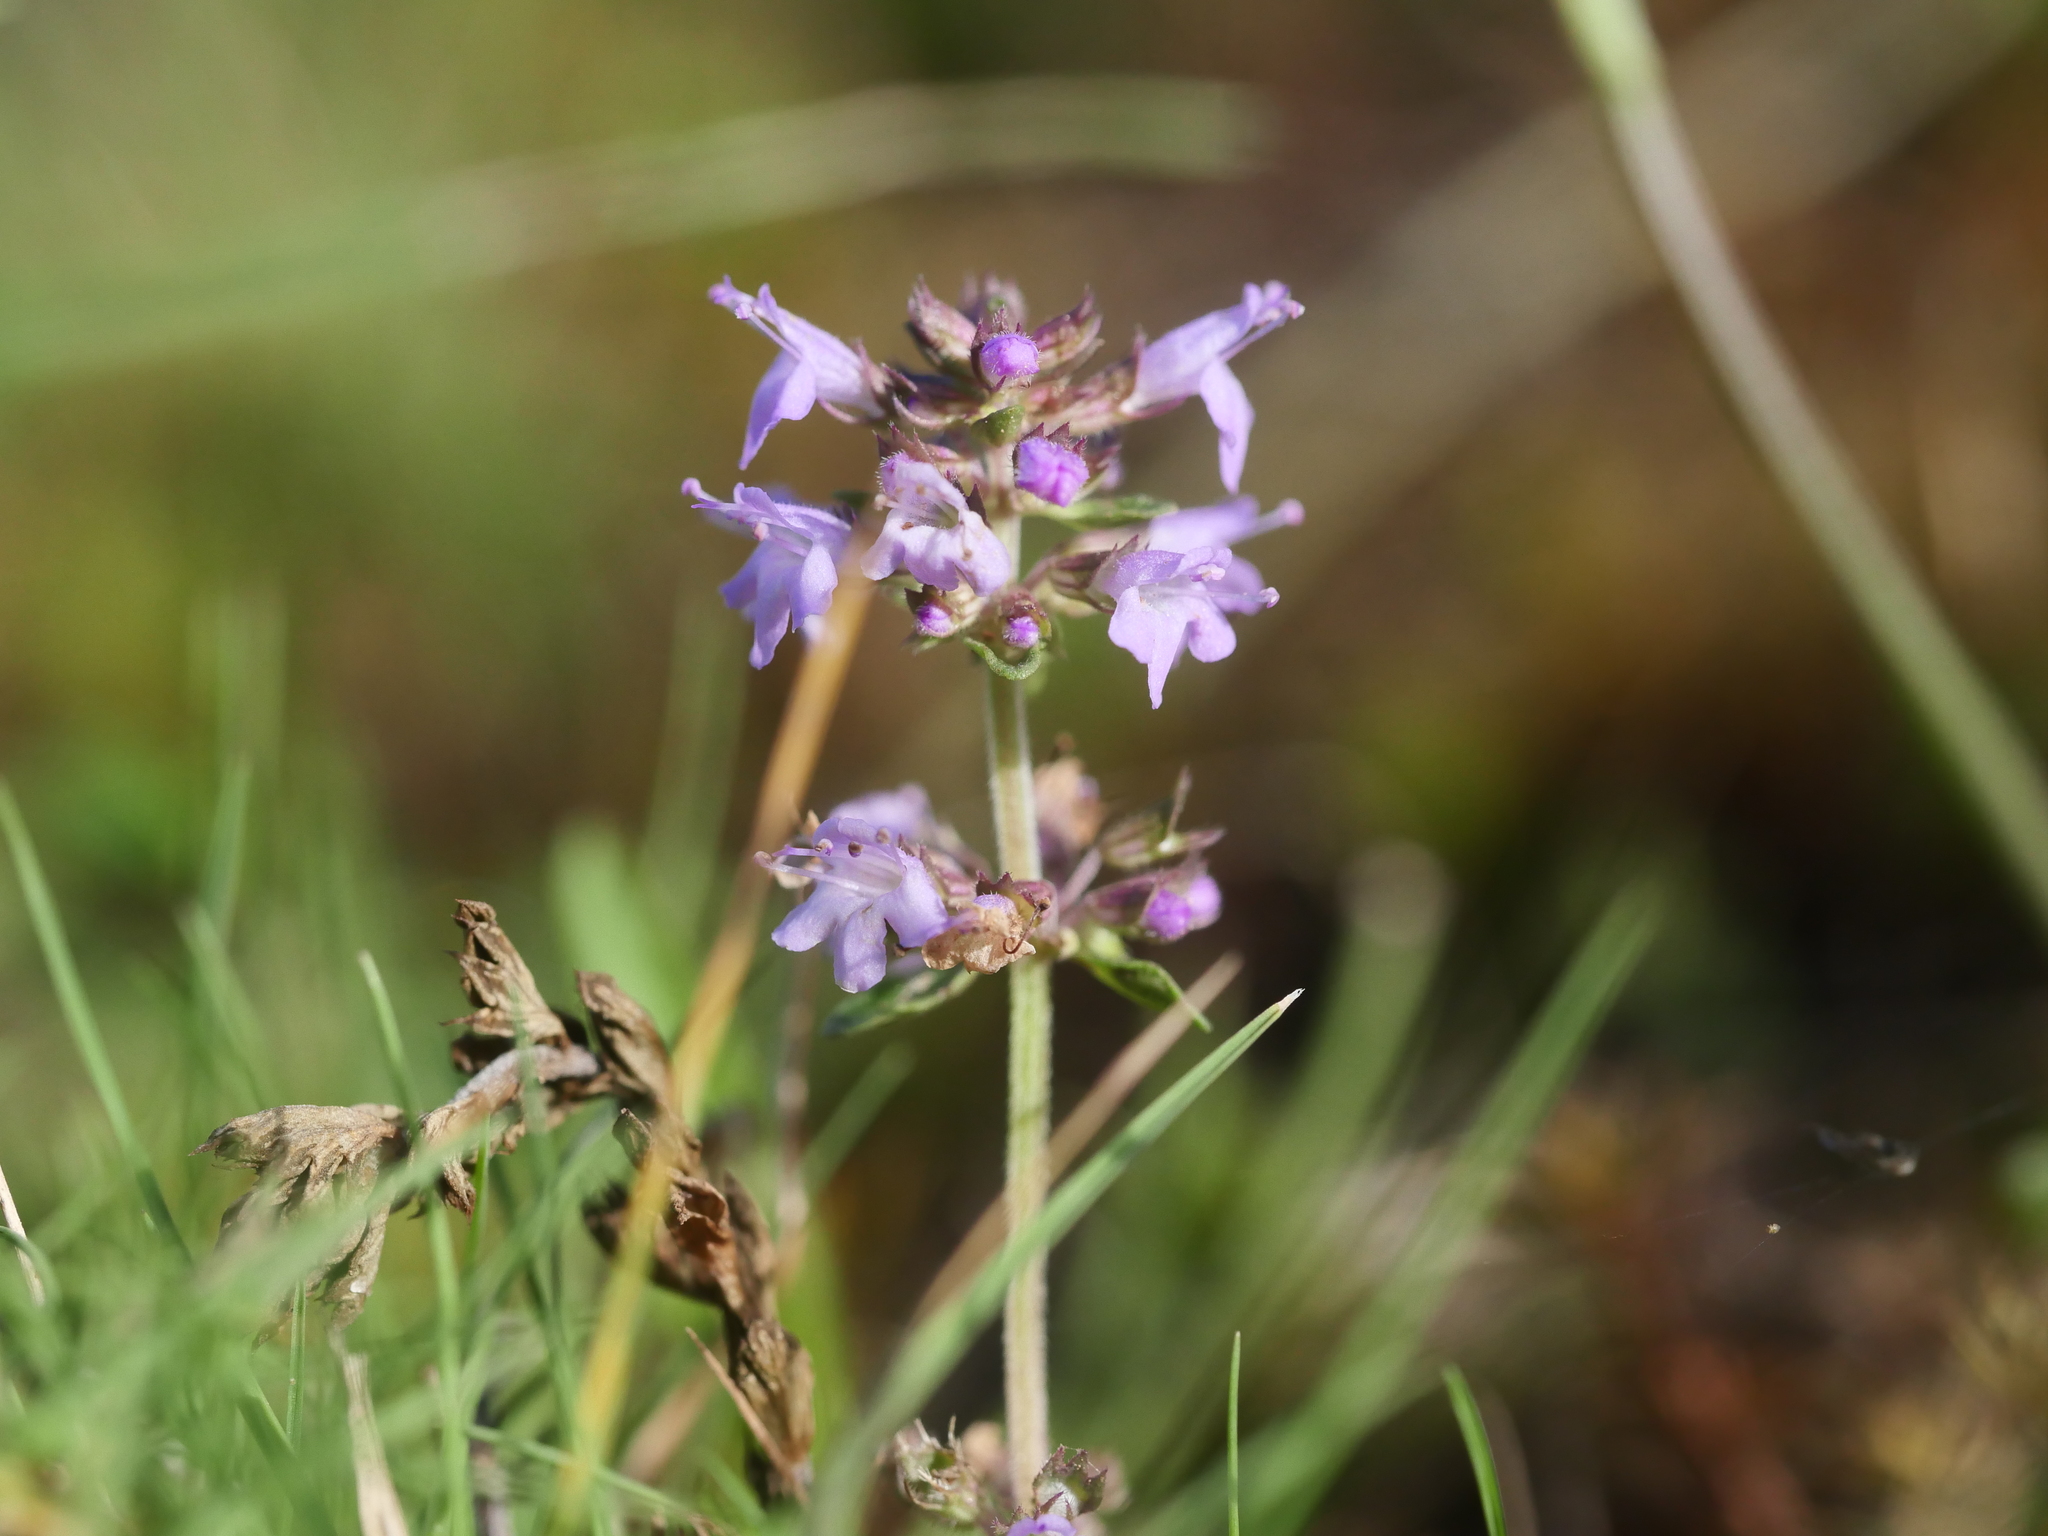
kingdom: Plantae
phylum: Tracheophyta
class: Magnoliopsida
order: Lamiales
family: Lamiaceae
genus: Thymus
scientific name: Thymus pulegioides
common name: Large thyme
